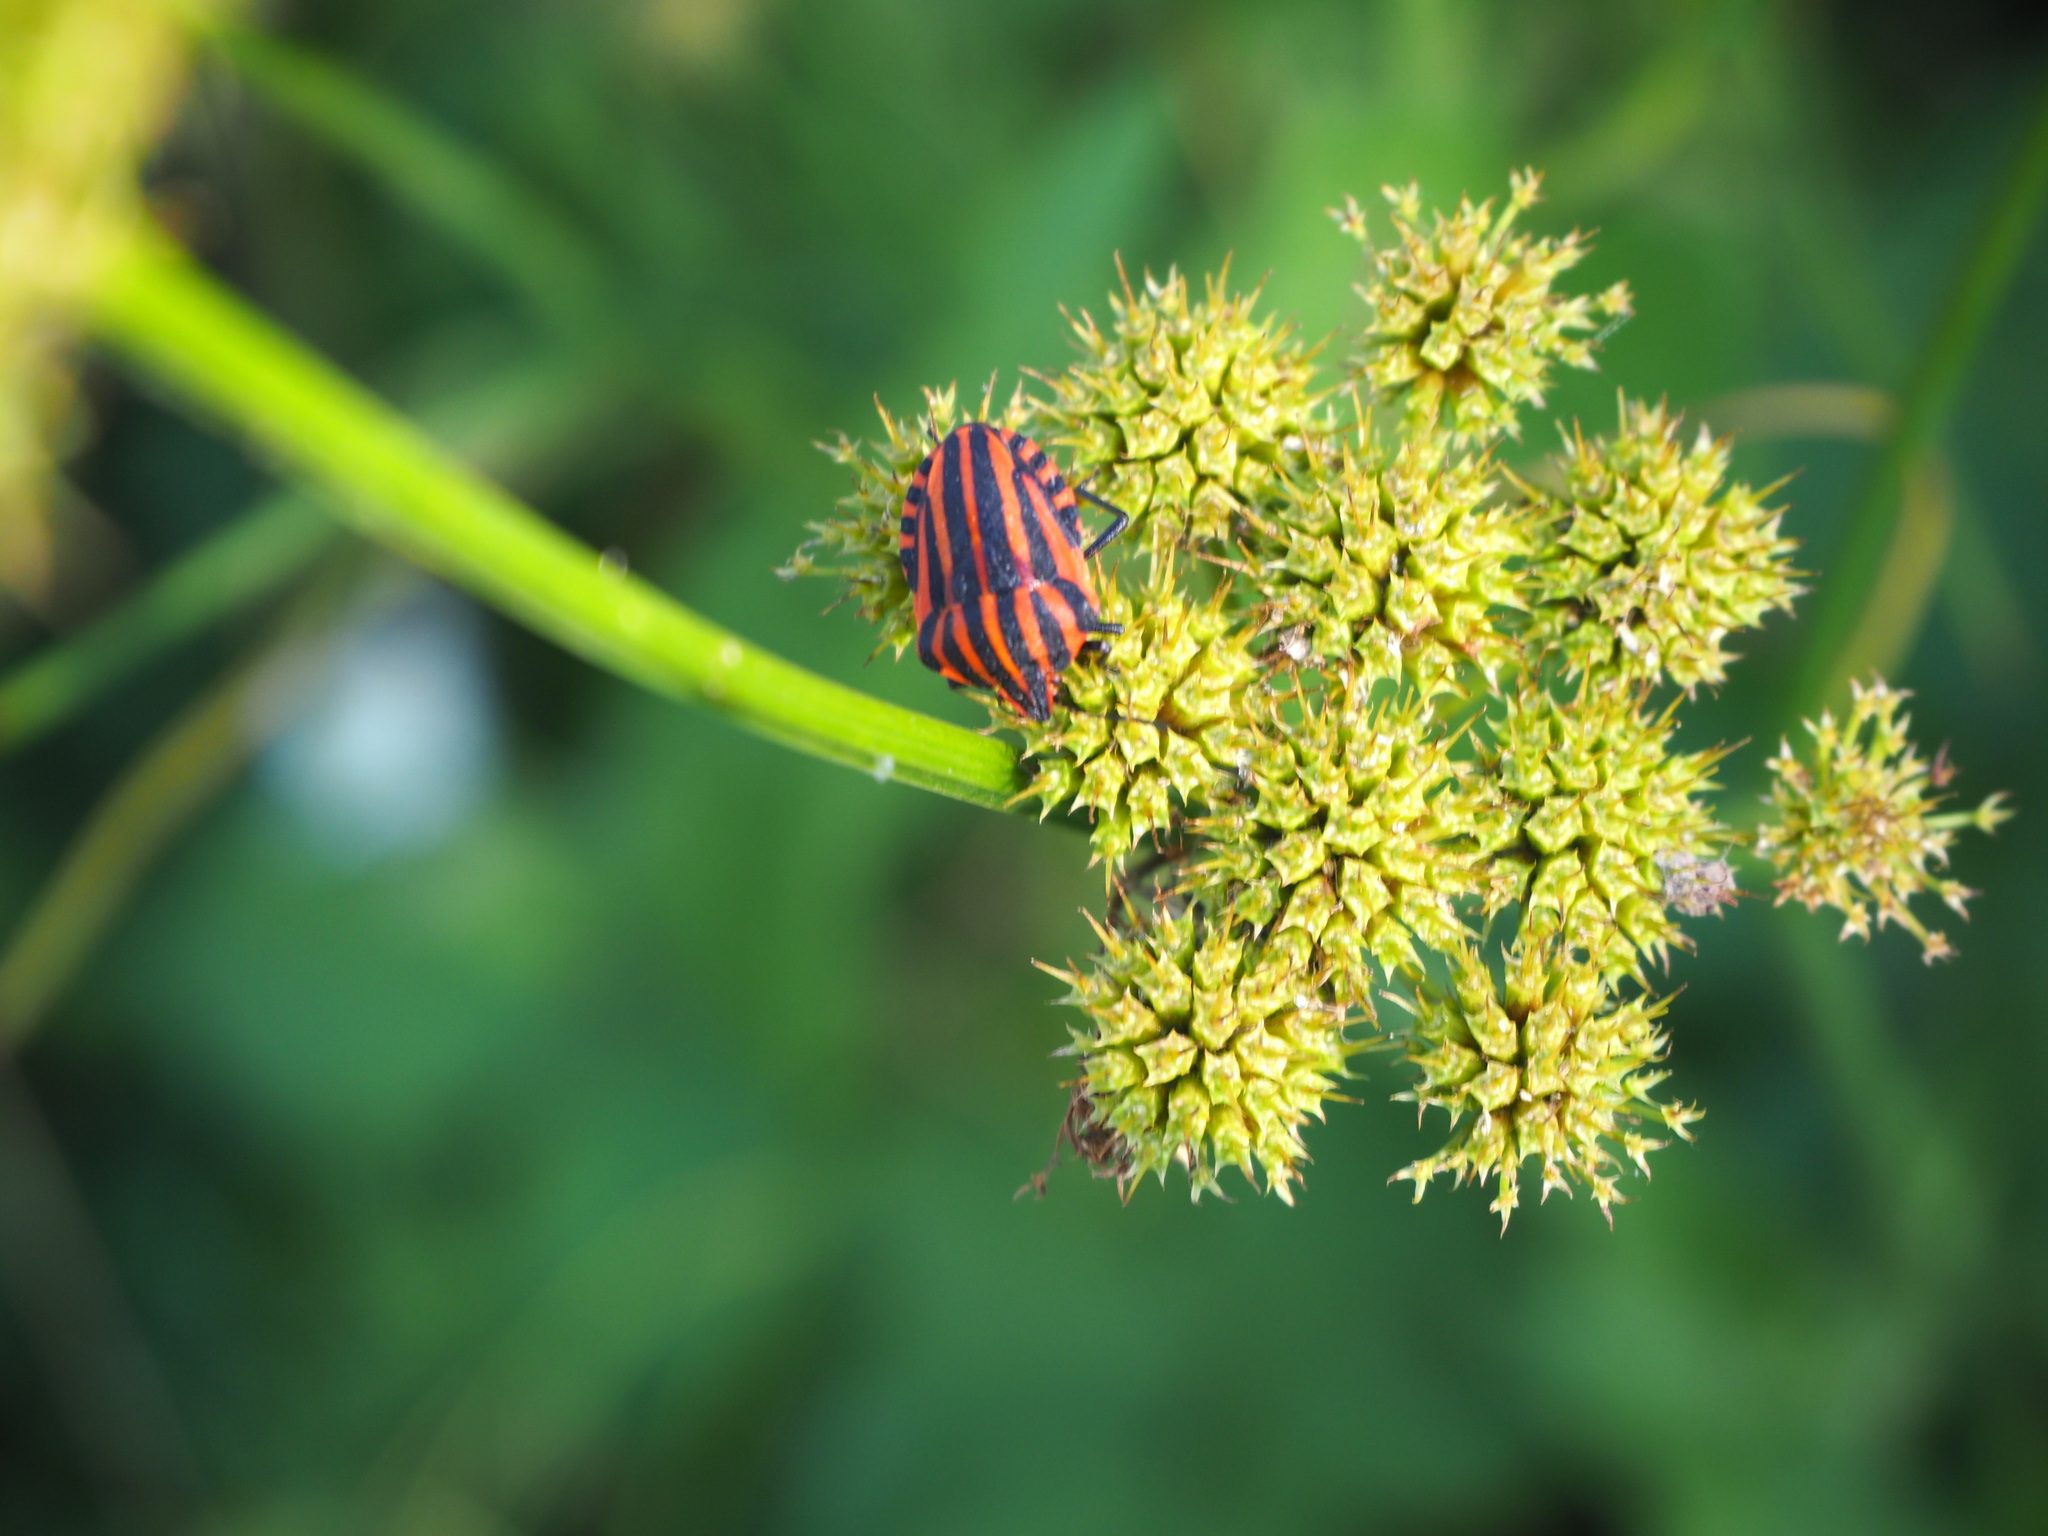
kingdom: Animalia
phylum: Arthropoda
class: Insecta
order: Hemiptera
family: Pentatomidae
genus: Graphosoma
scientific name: Graphosoma italicum
